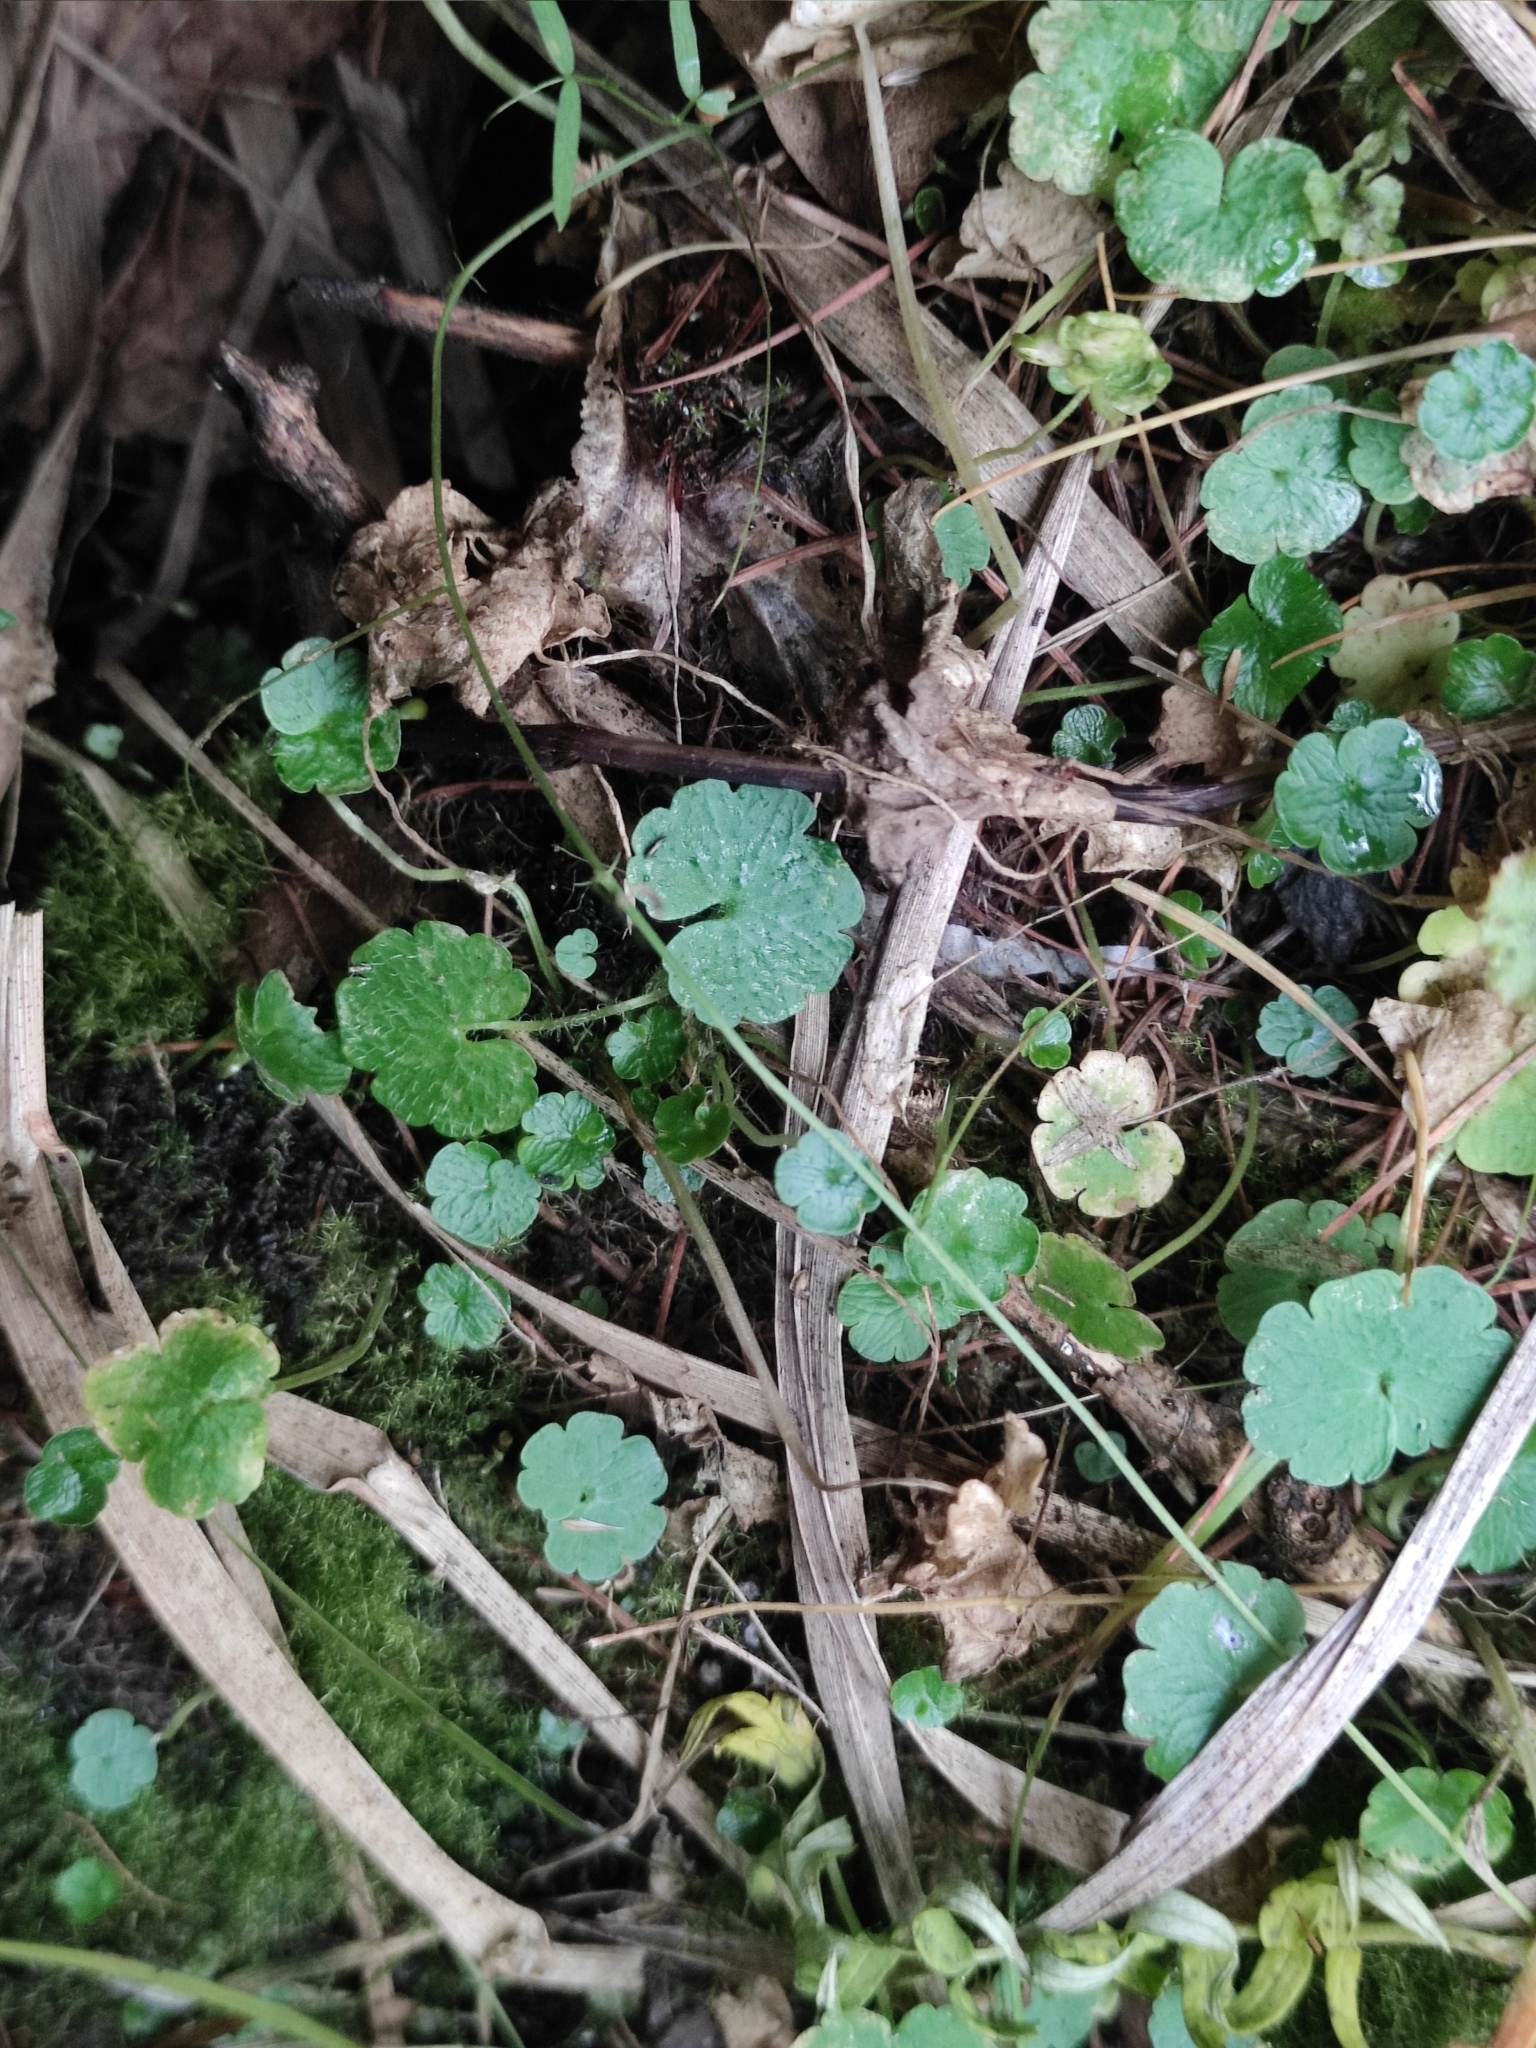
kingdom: Plantae
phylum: Tracheophyta
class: Magnoliopsida
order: Saxifragales
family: Saxifragaceae
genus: Mitella
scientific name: Mitella nuda
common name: Bare-stemmed bishop's-cap
